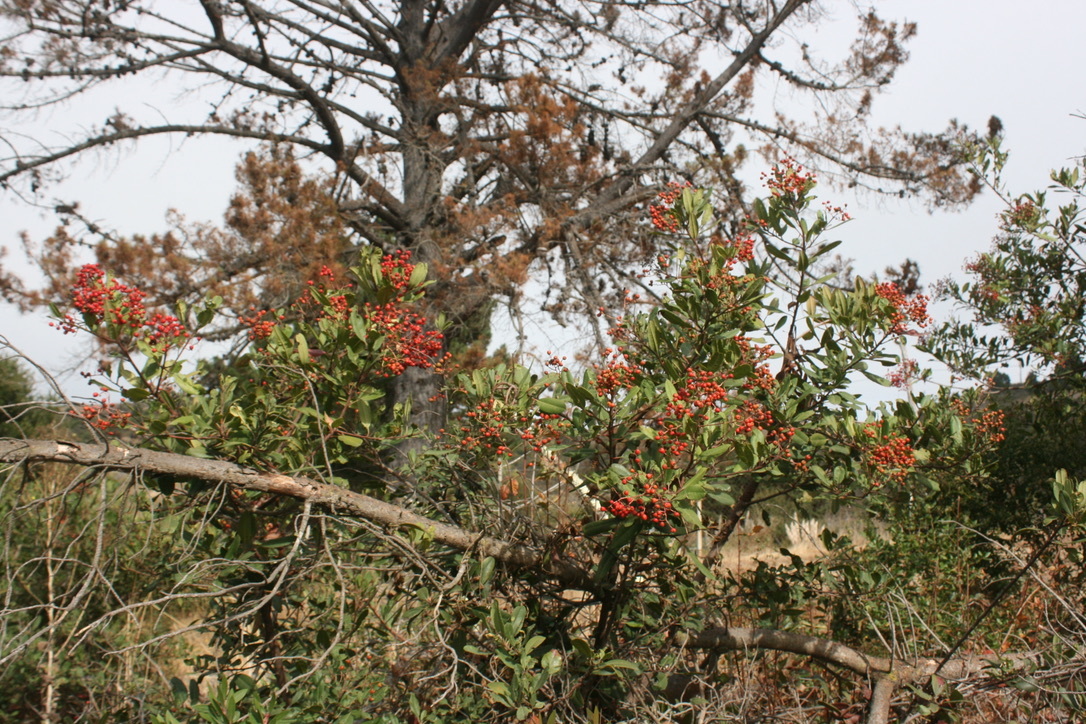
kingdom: Plantae
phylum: Tracheophyta
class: Magnoliopsida
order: Rosales
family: Rosaceae
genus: Heteromeles
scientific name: Heteromeles arbutifolia
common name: California-holly
